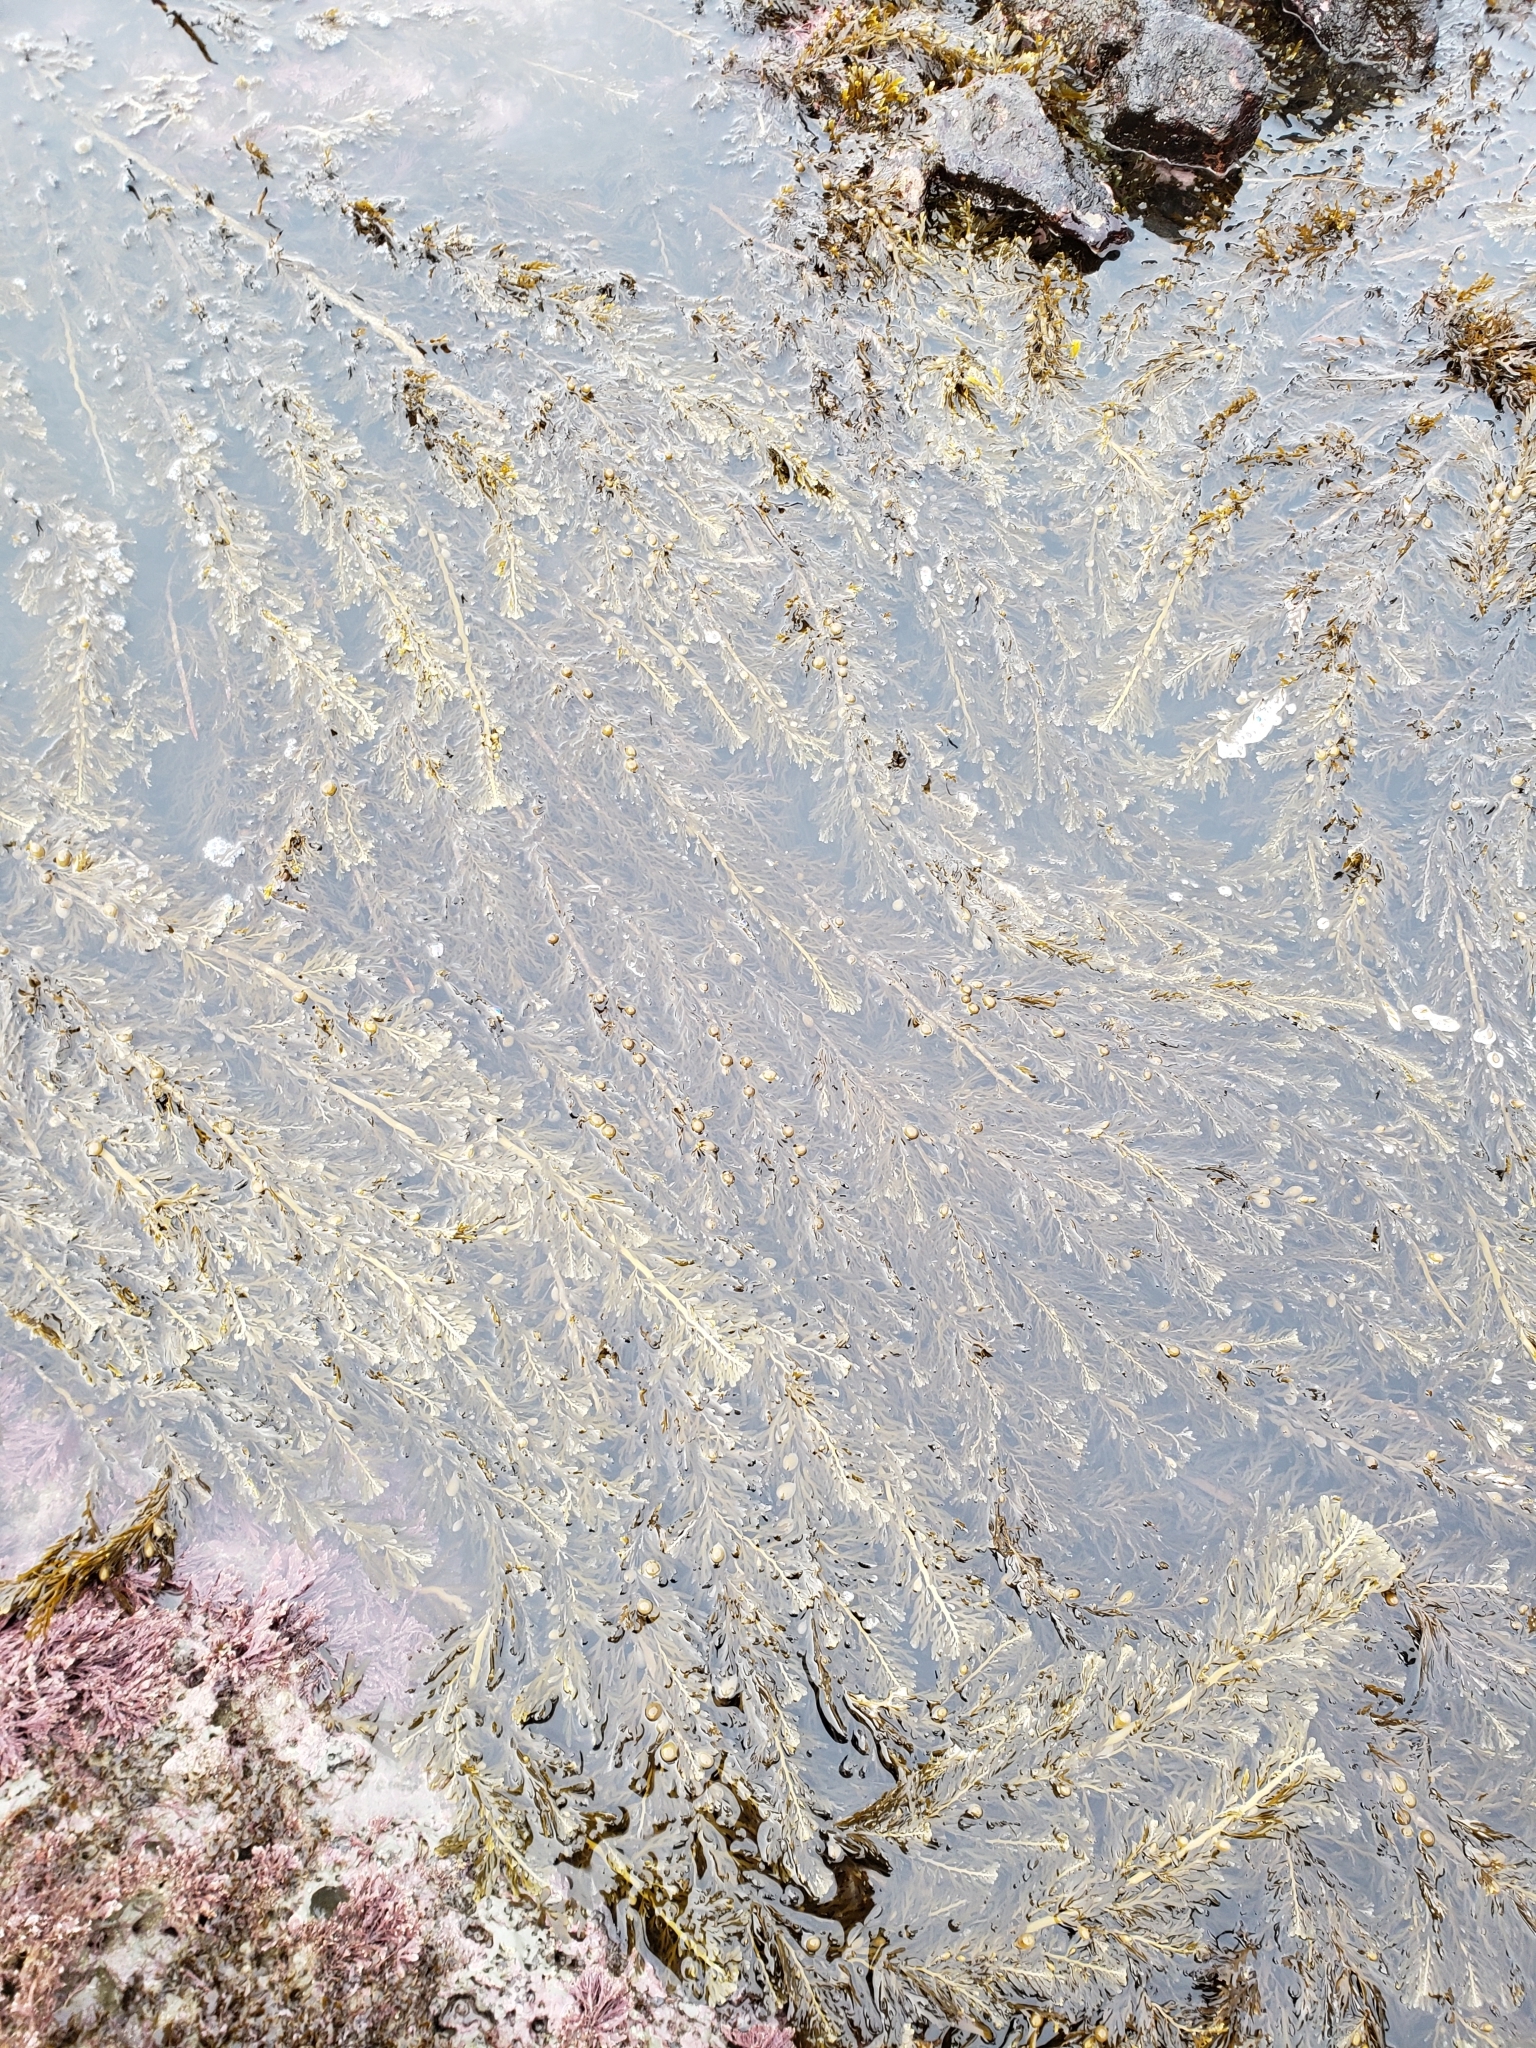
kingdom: Chromista
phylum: Ochrophyta
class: Phaeophyceae
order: Fucales
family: Sargassaceae
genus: Carpophyllum
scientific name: Carpophyllum plumosum
